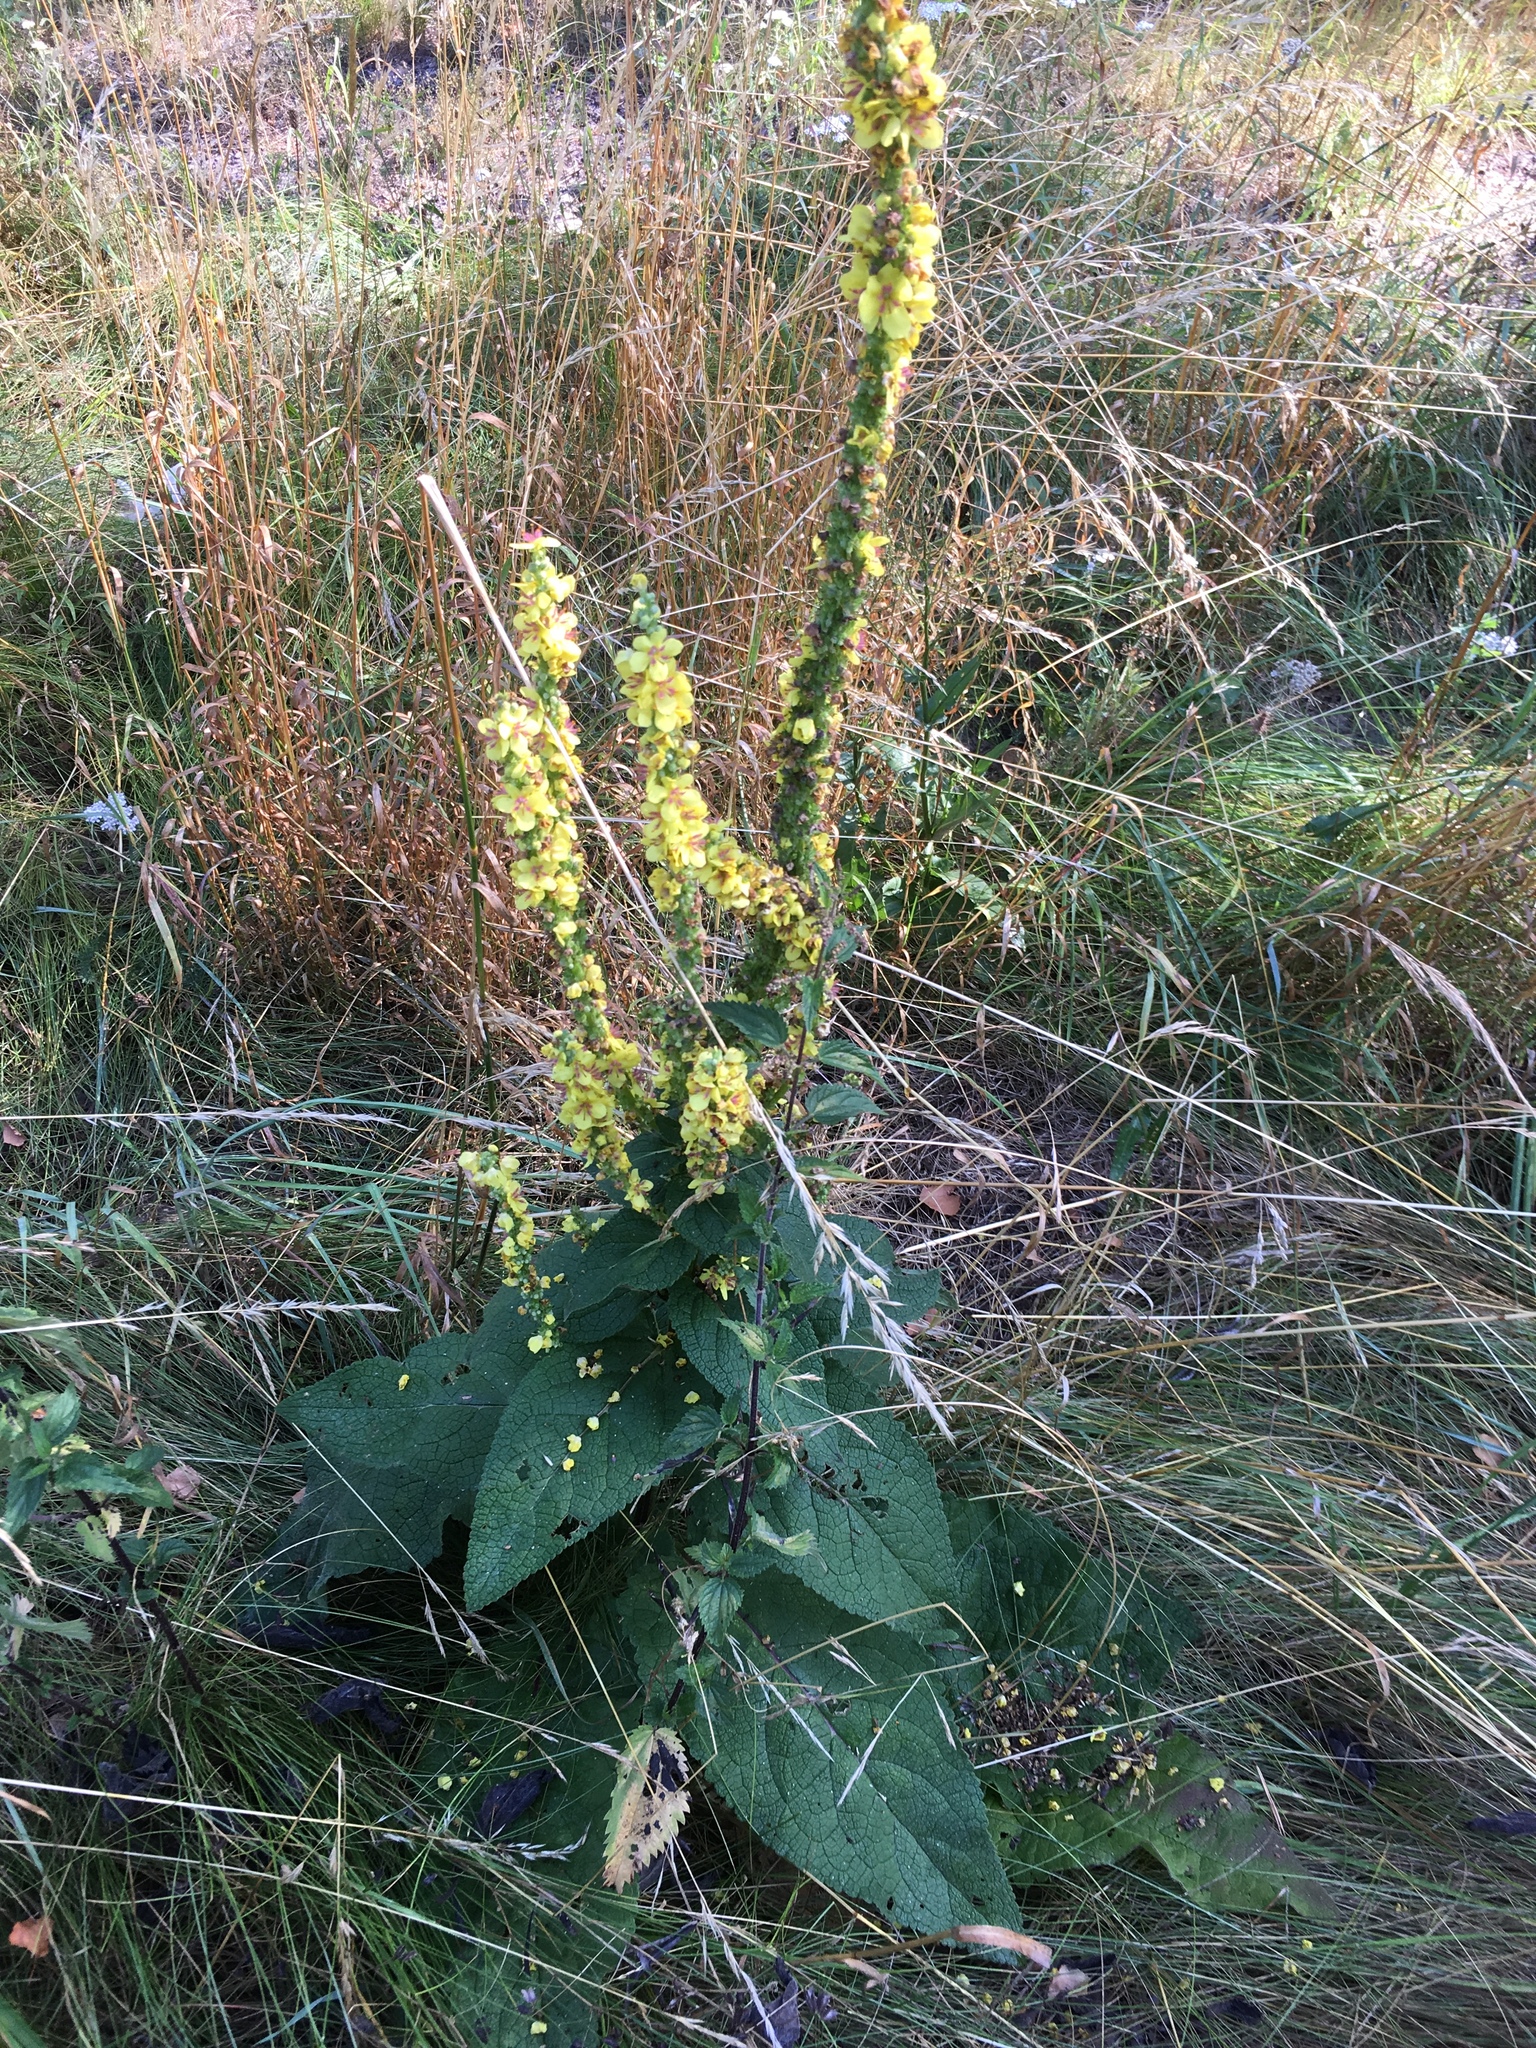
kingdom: Plantae
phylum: Tracheophyta
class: Magnoliopsida
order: Lamiales
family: Scrophulariaceae
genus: Verbascum
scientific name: Verbascum nigrum
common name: Dark mullein
